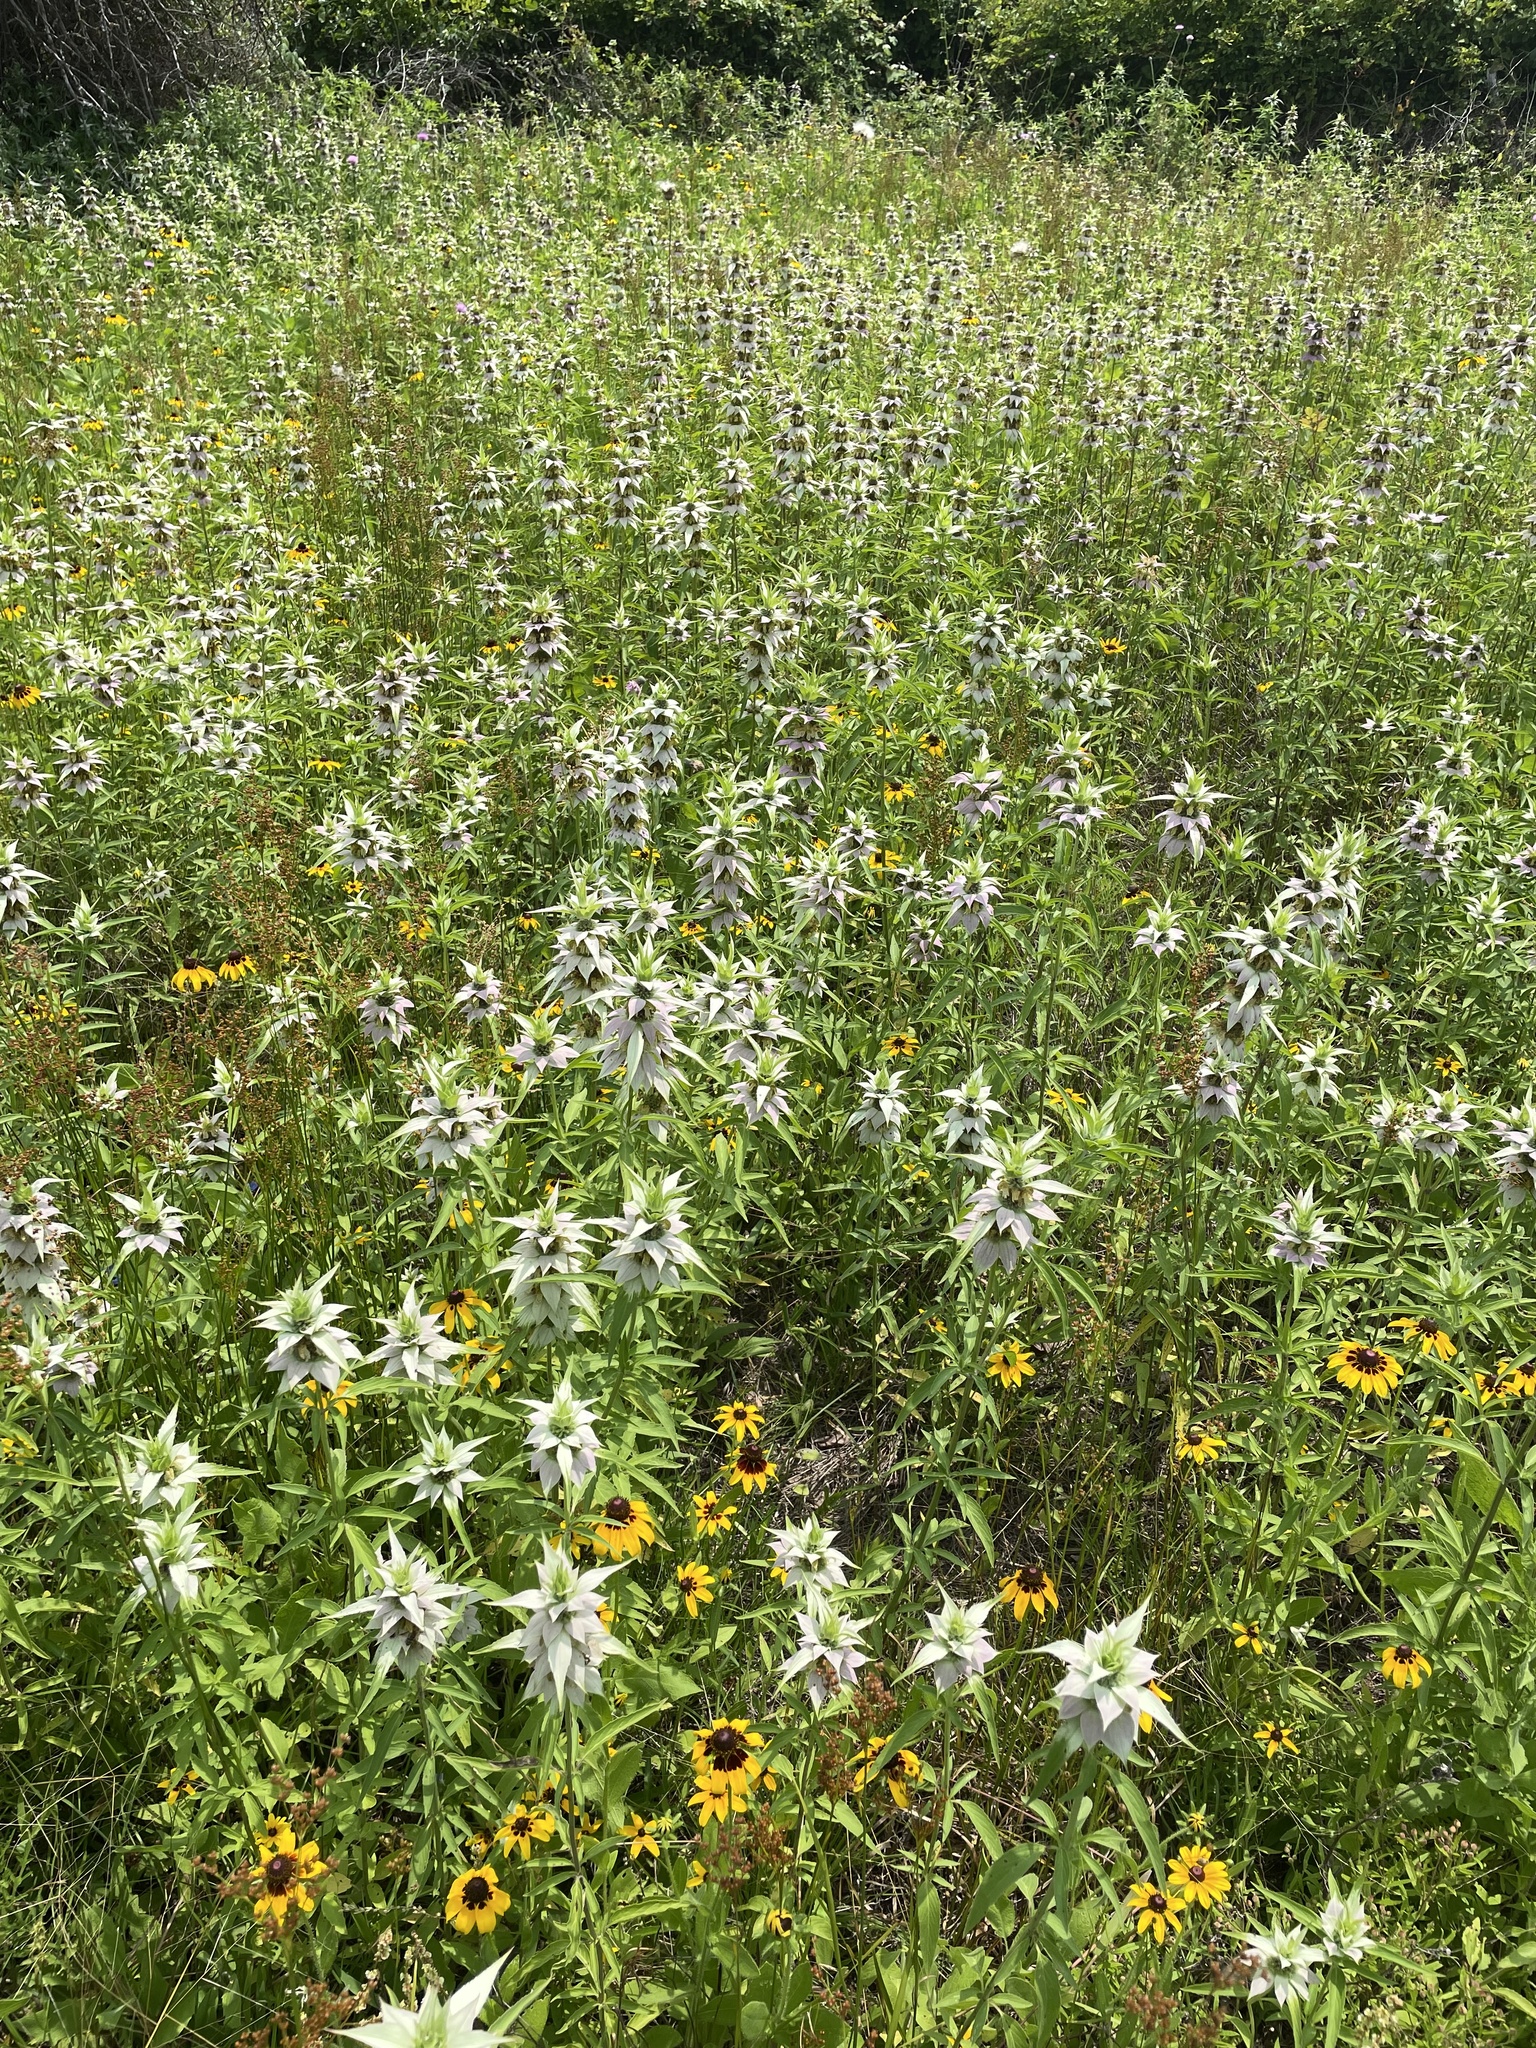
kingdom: Plantae
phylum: Tracheophyta
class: Magnoliopsida
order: Lamiales
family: Lamiaceae
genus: Monarda
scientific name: Monarda punctata
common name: Dotted monarda
